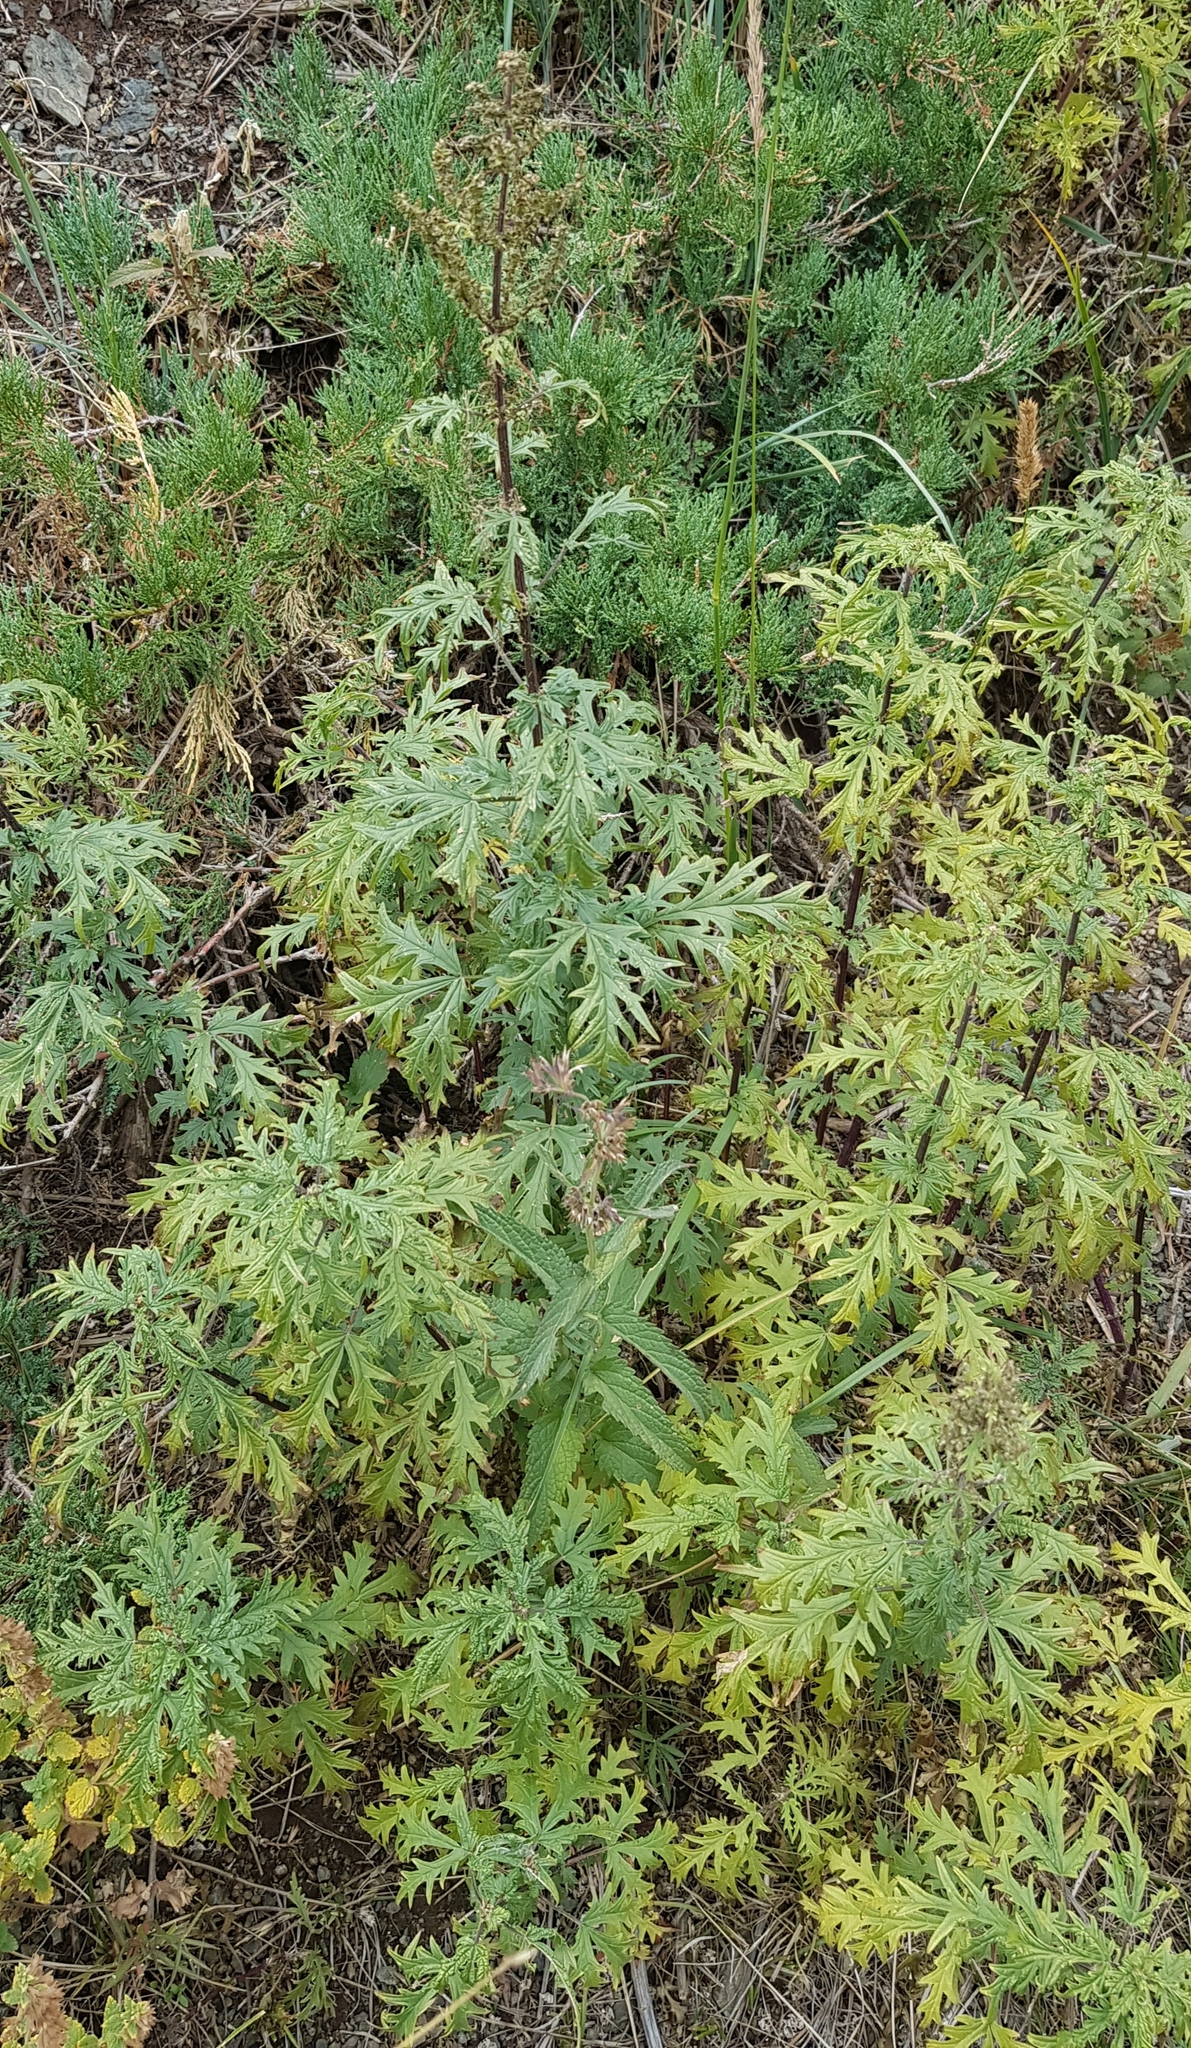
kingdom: Plantae
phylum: Tracheophyta
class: Magnoliopsida
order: Rosales
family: Urticaceae
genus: Urtica
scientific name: Urtica cannabina
